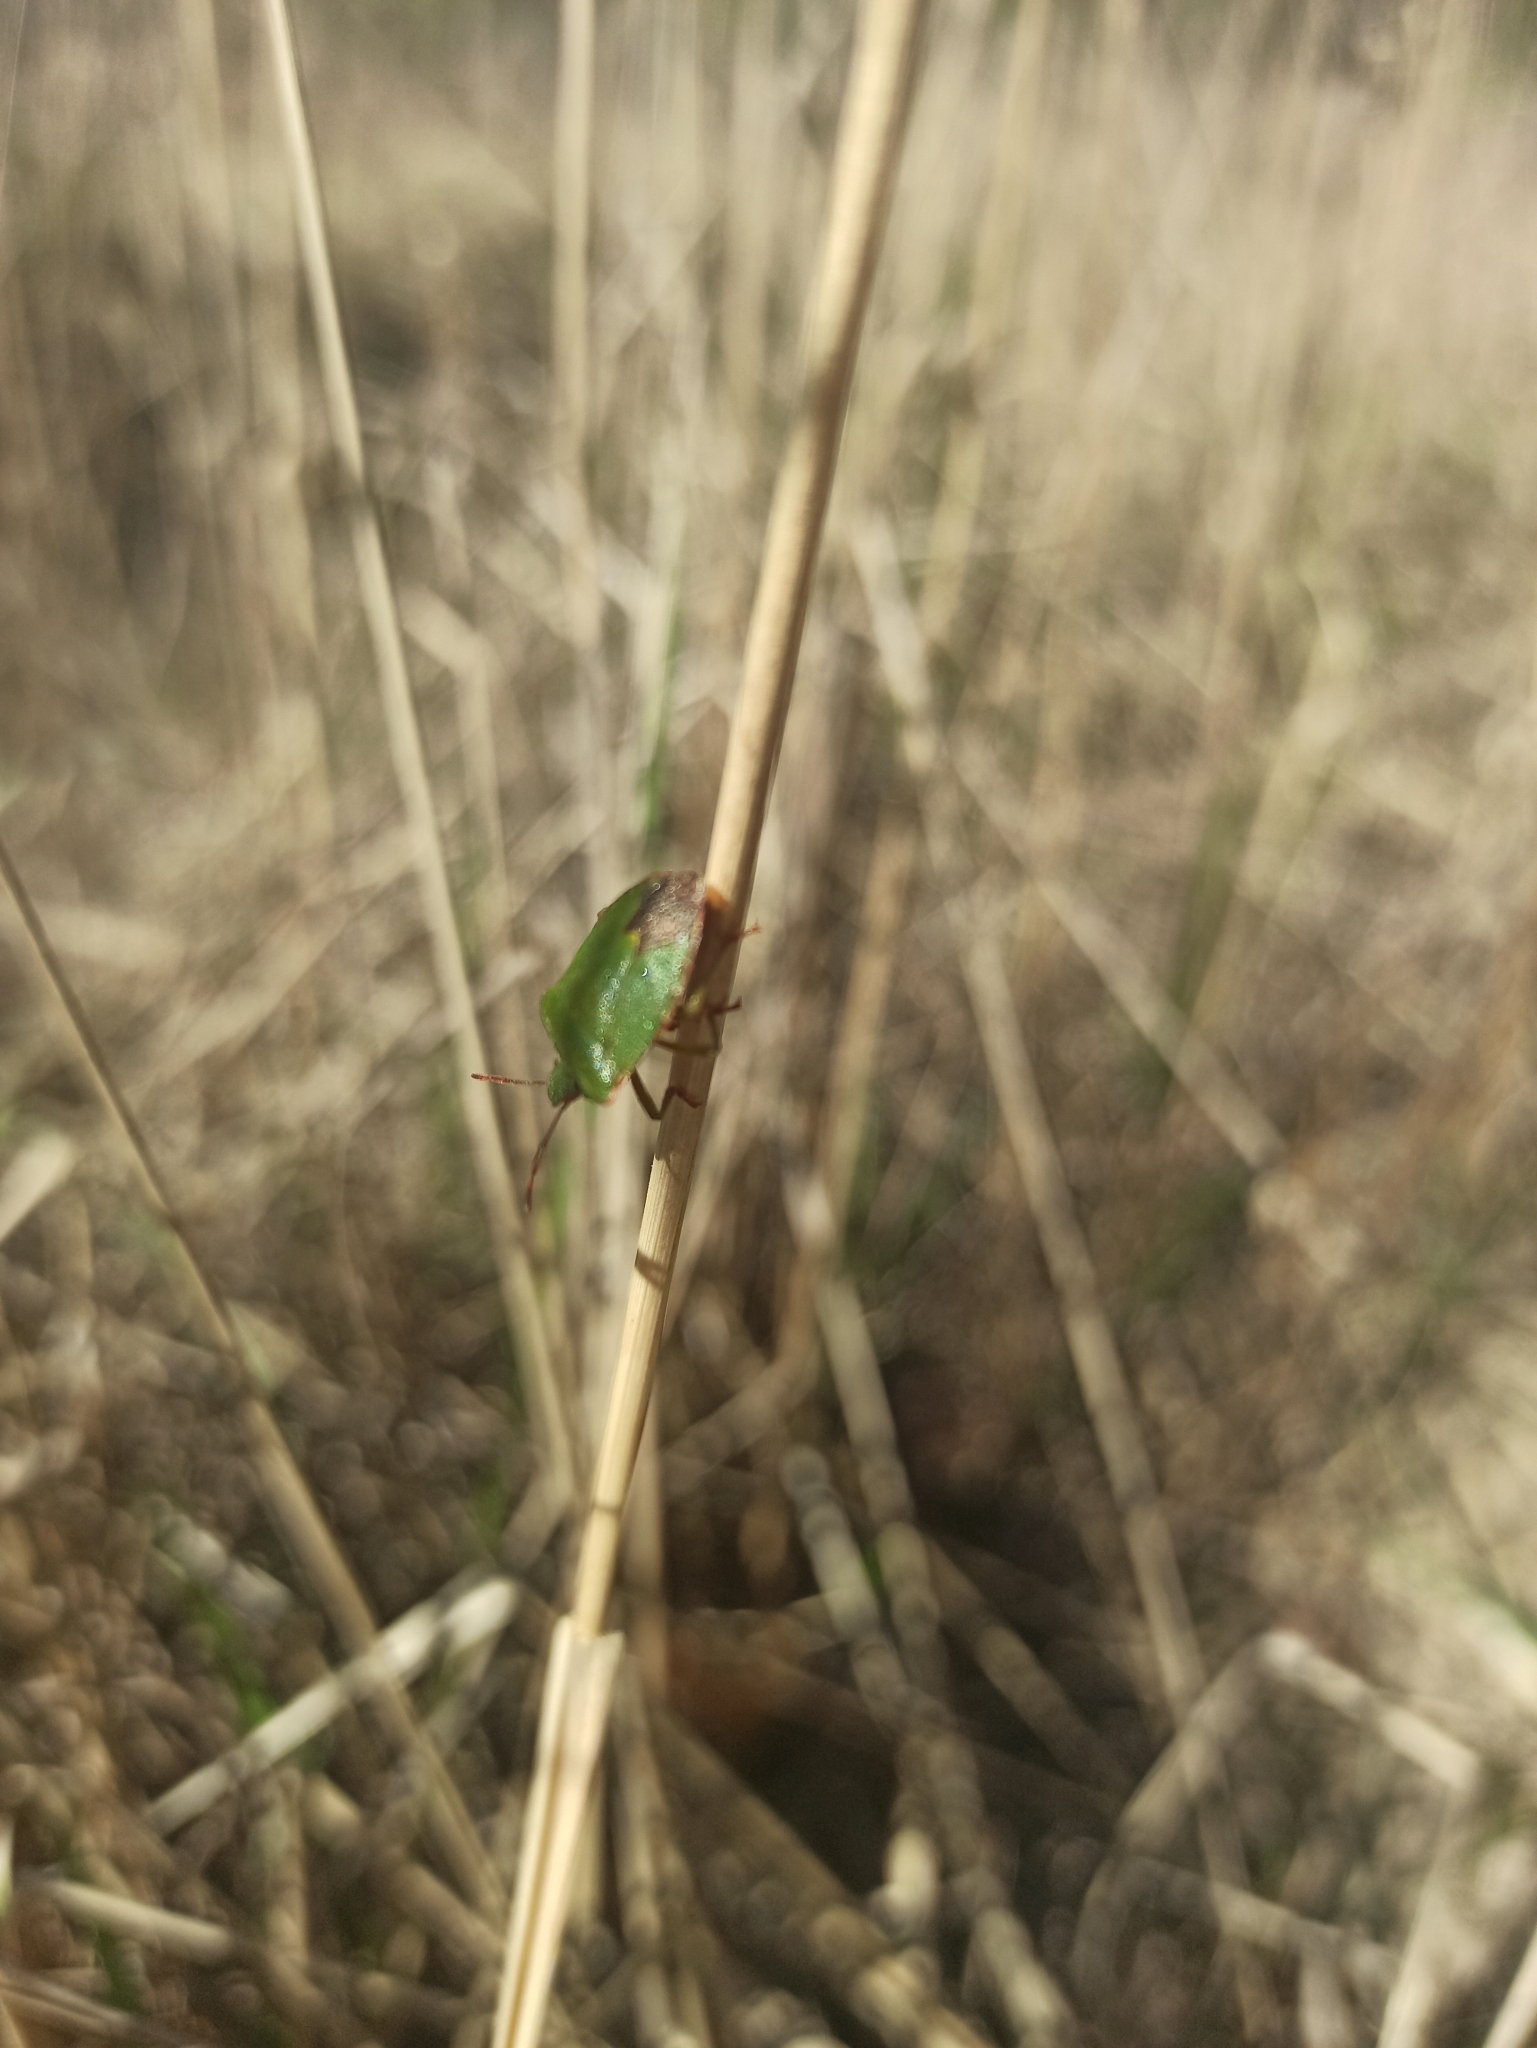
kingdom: Animalia
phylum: Arthropoda
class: Insecta
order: Hemiptera
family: Pentatomidae
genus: Palomena
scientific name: Palomena prasina
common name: Green shieldbug
